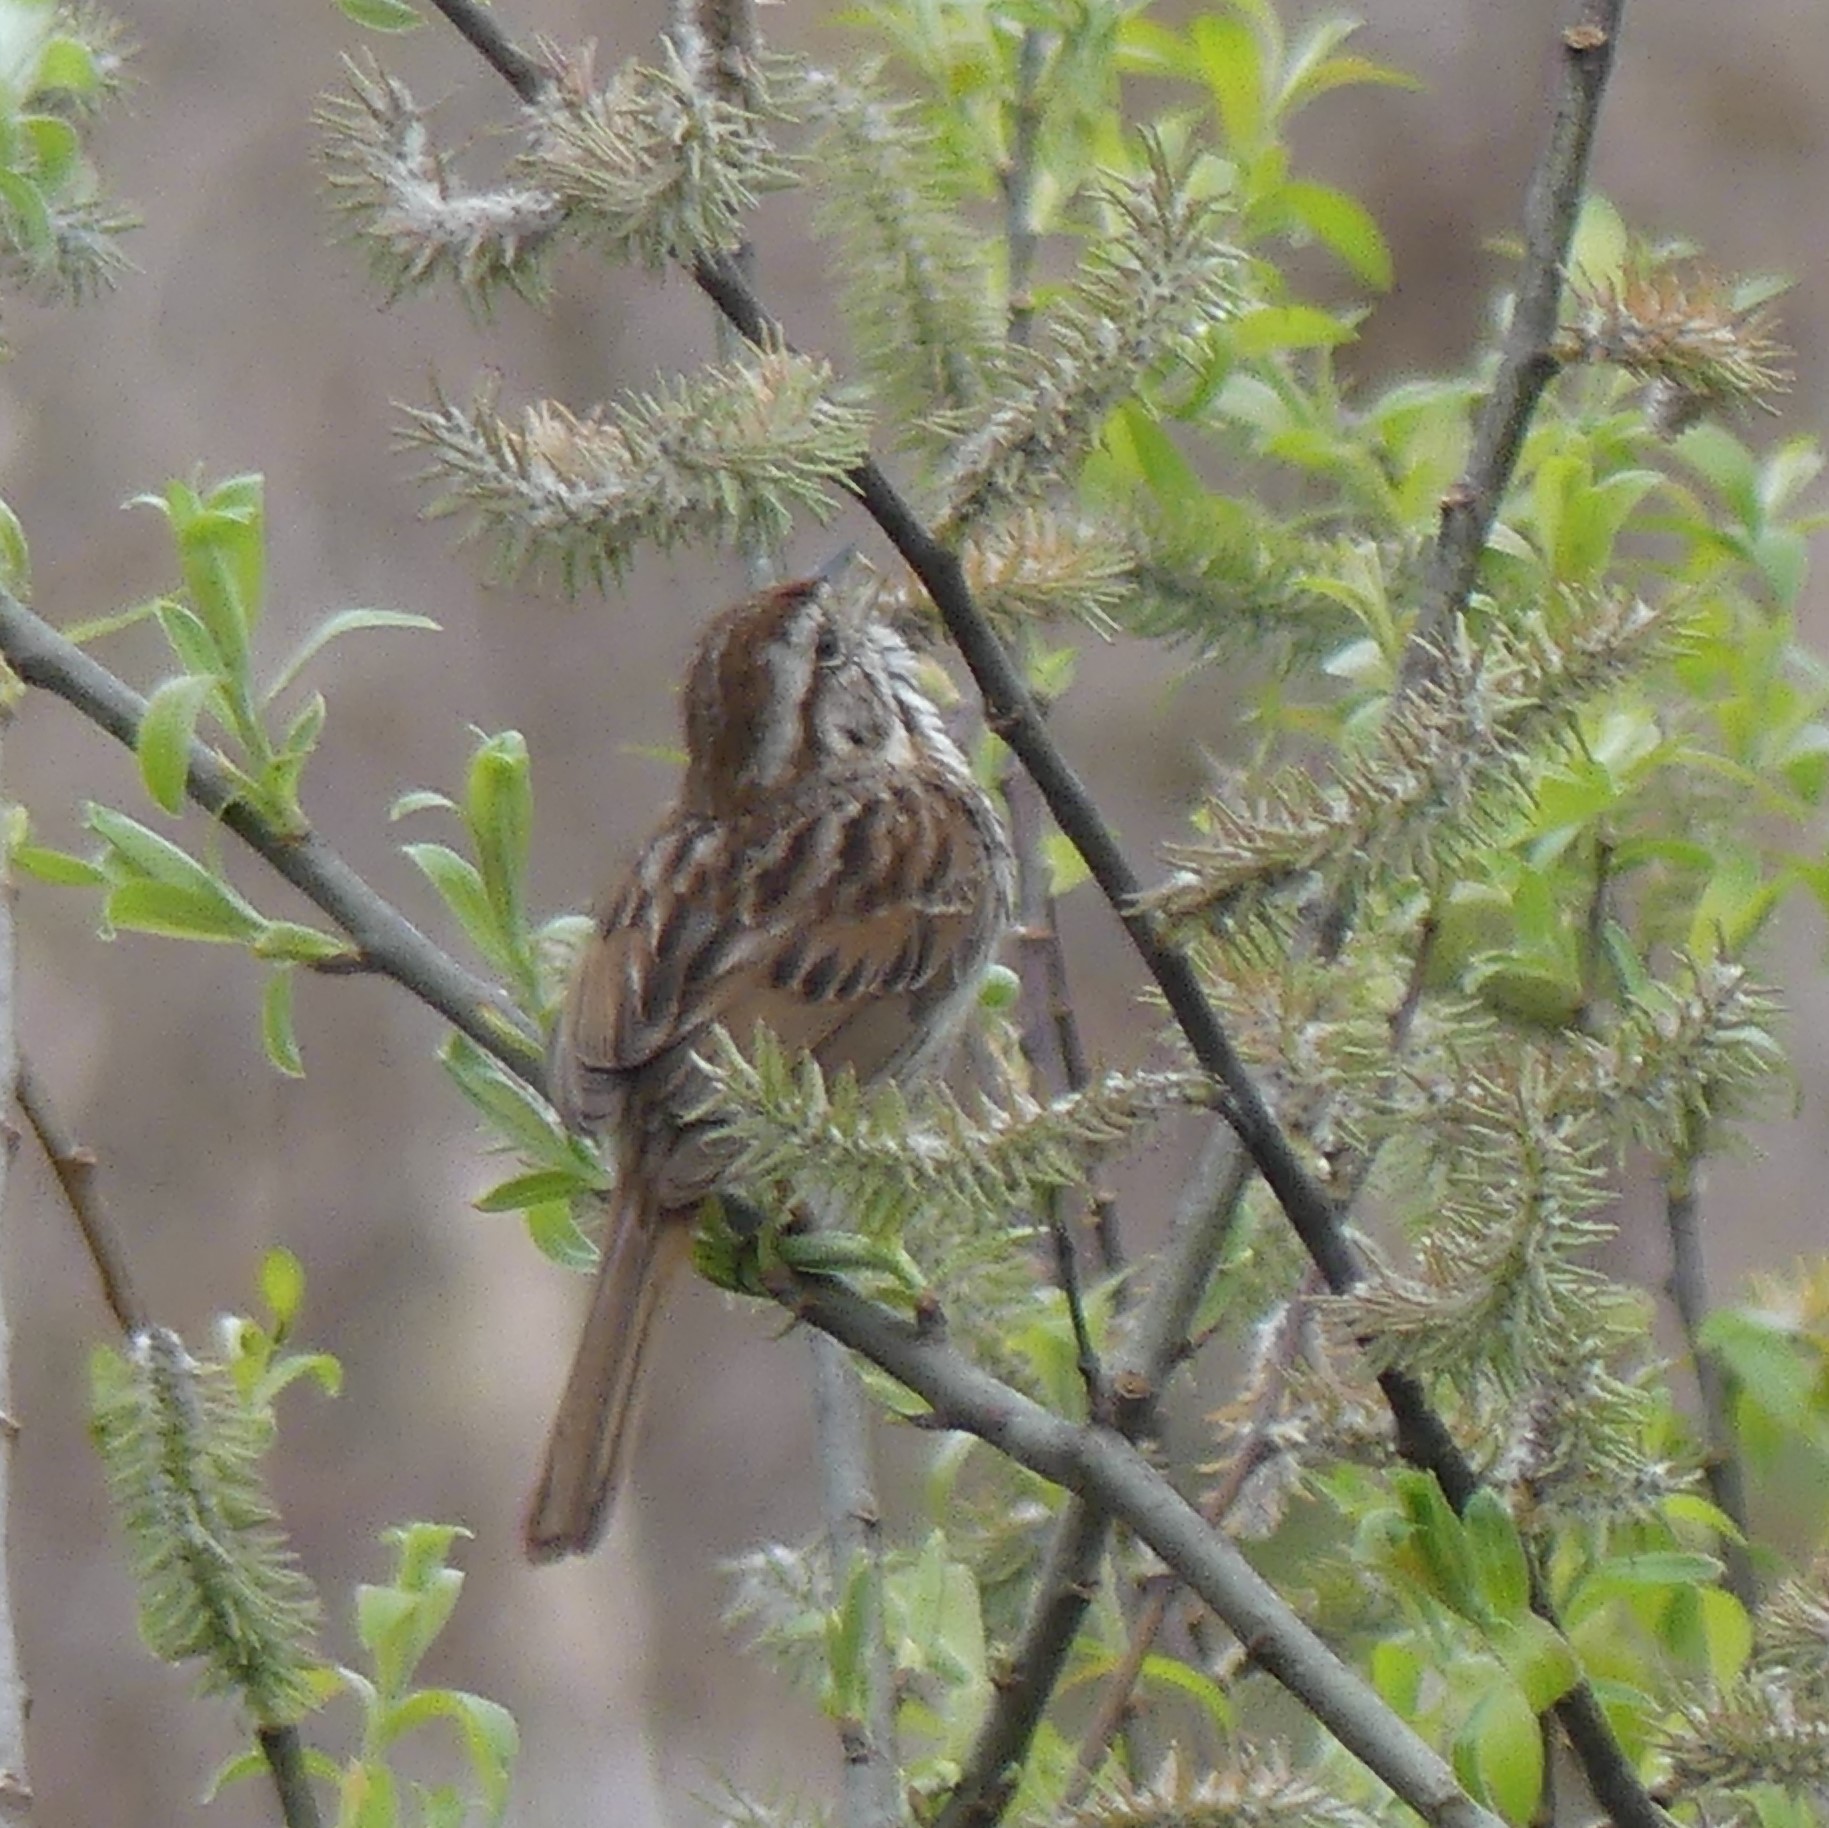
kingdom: Animalia
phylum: Chordata
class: Aves
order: Passeriformes
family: Passerellidae
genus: Melospiza
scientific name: Melospiza melodia
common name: Song sparrow
